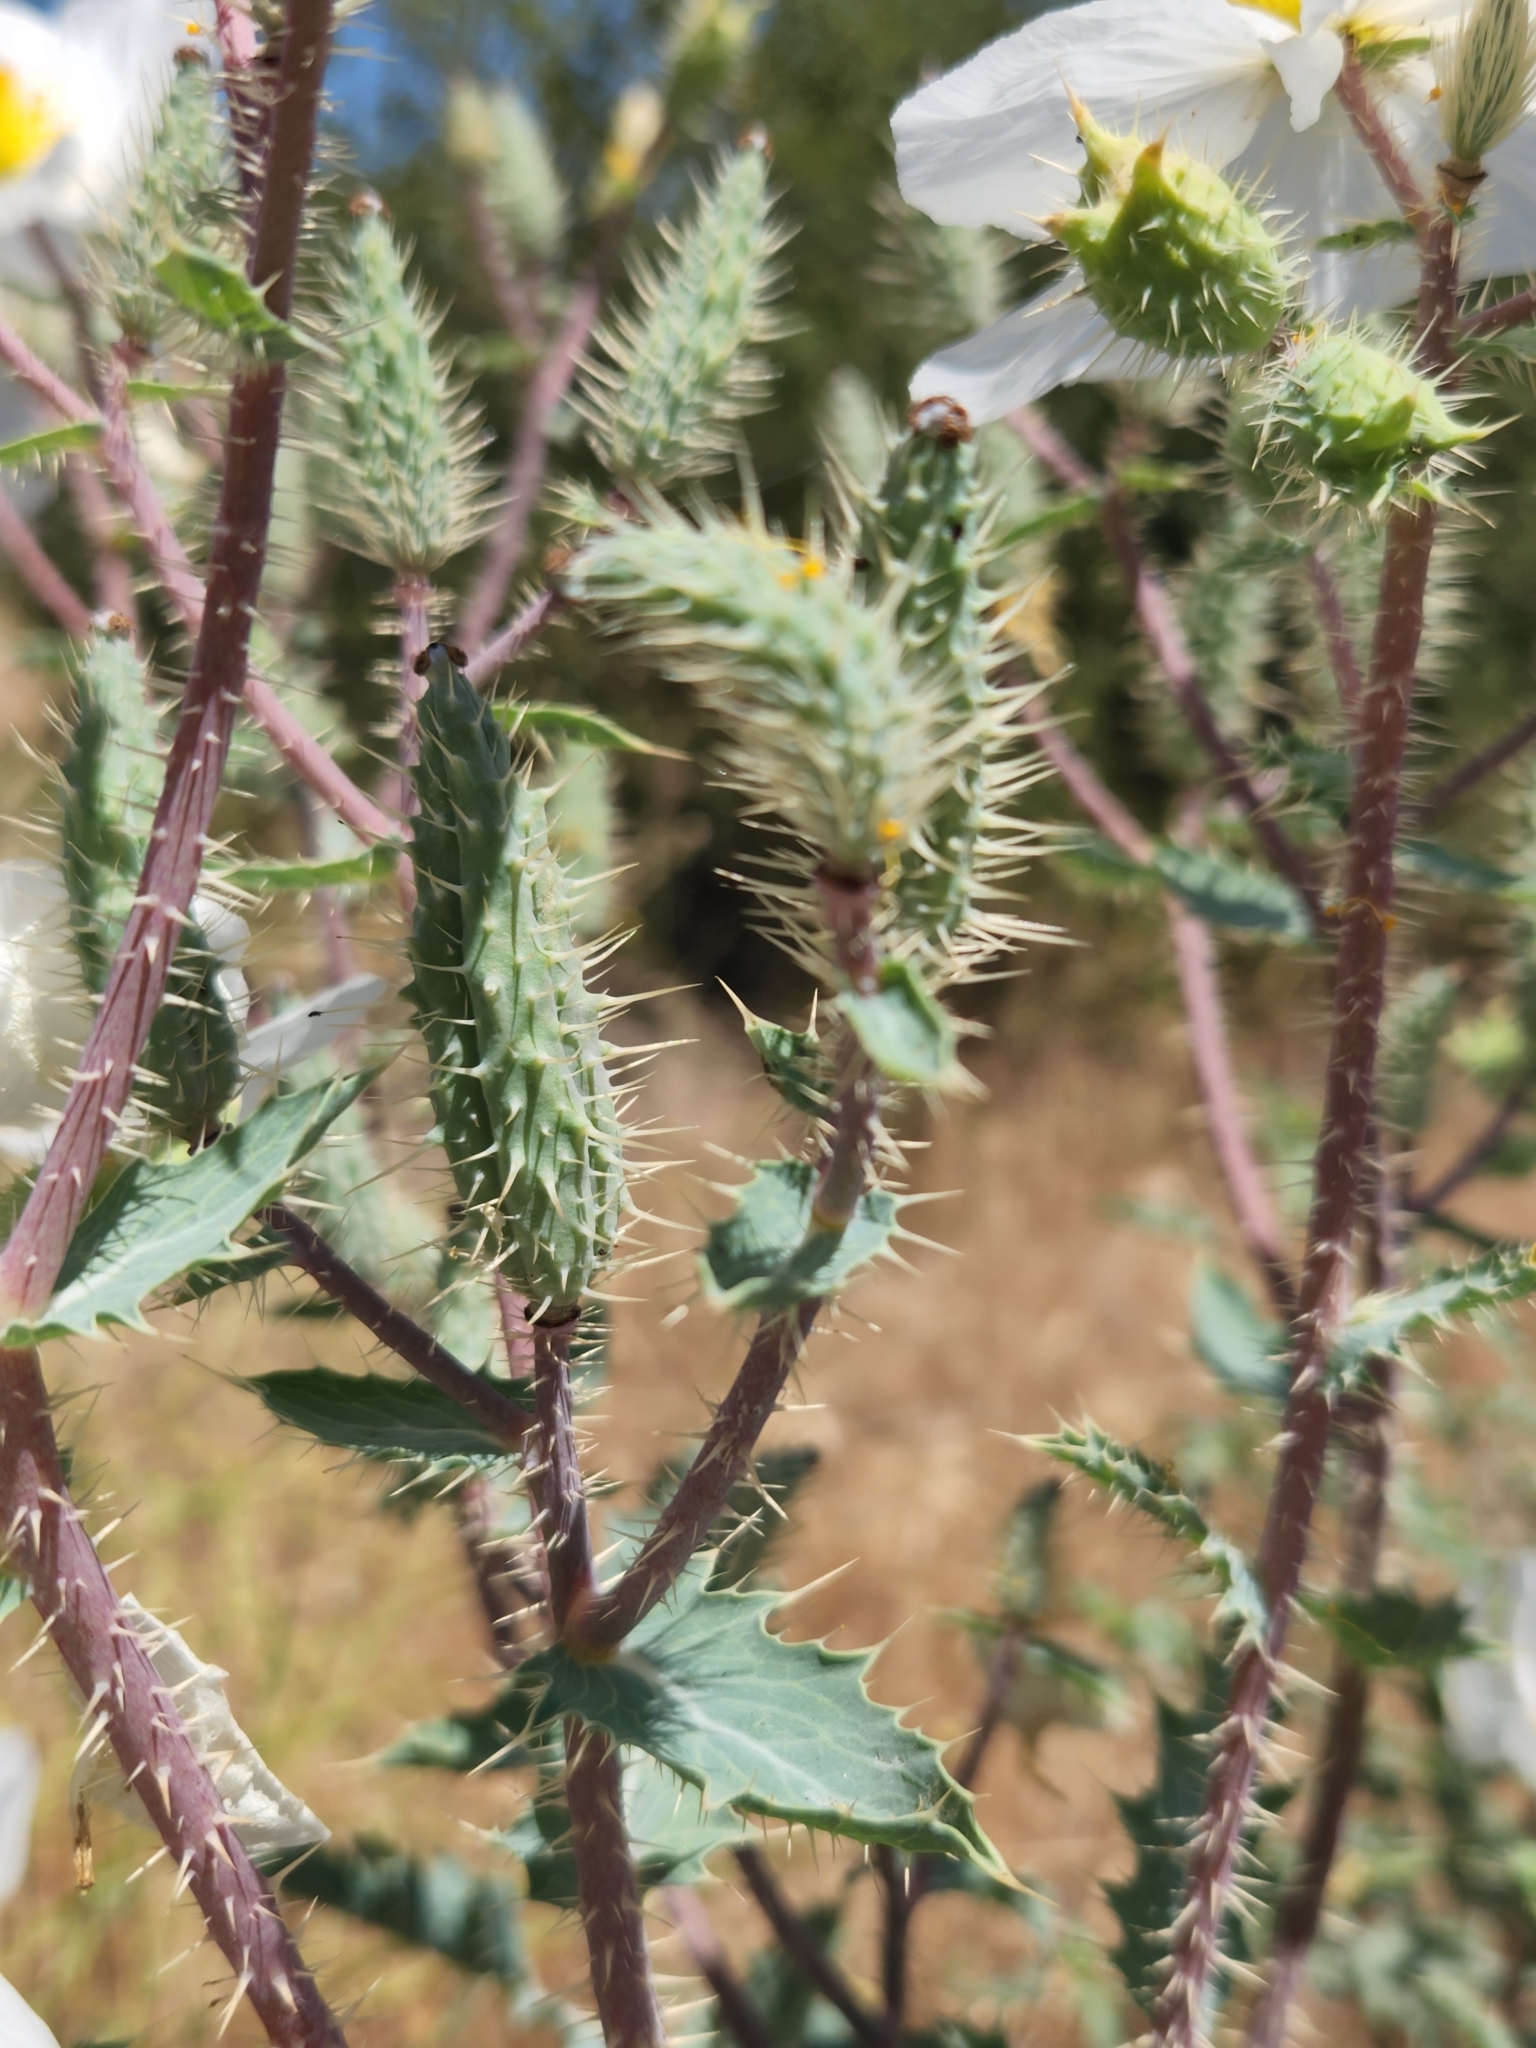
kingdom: Plantae
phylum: Tracheophyta
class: Magnoliopsida
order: Ranunculales
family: Papaveraceae
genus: Argemone
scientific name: Argemone munita
